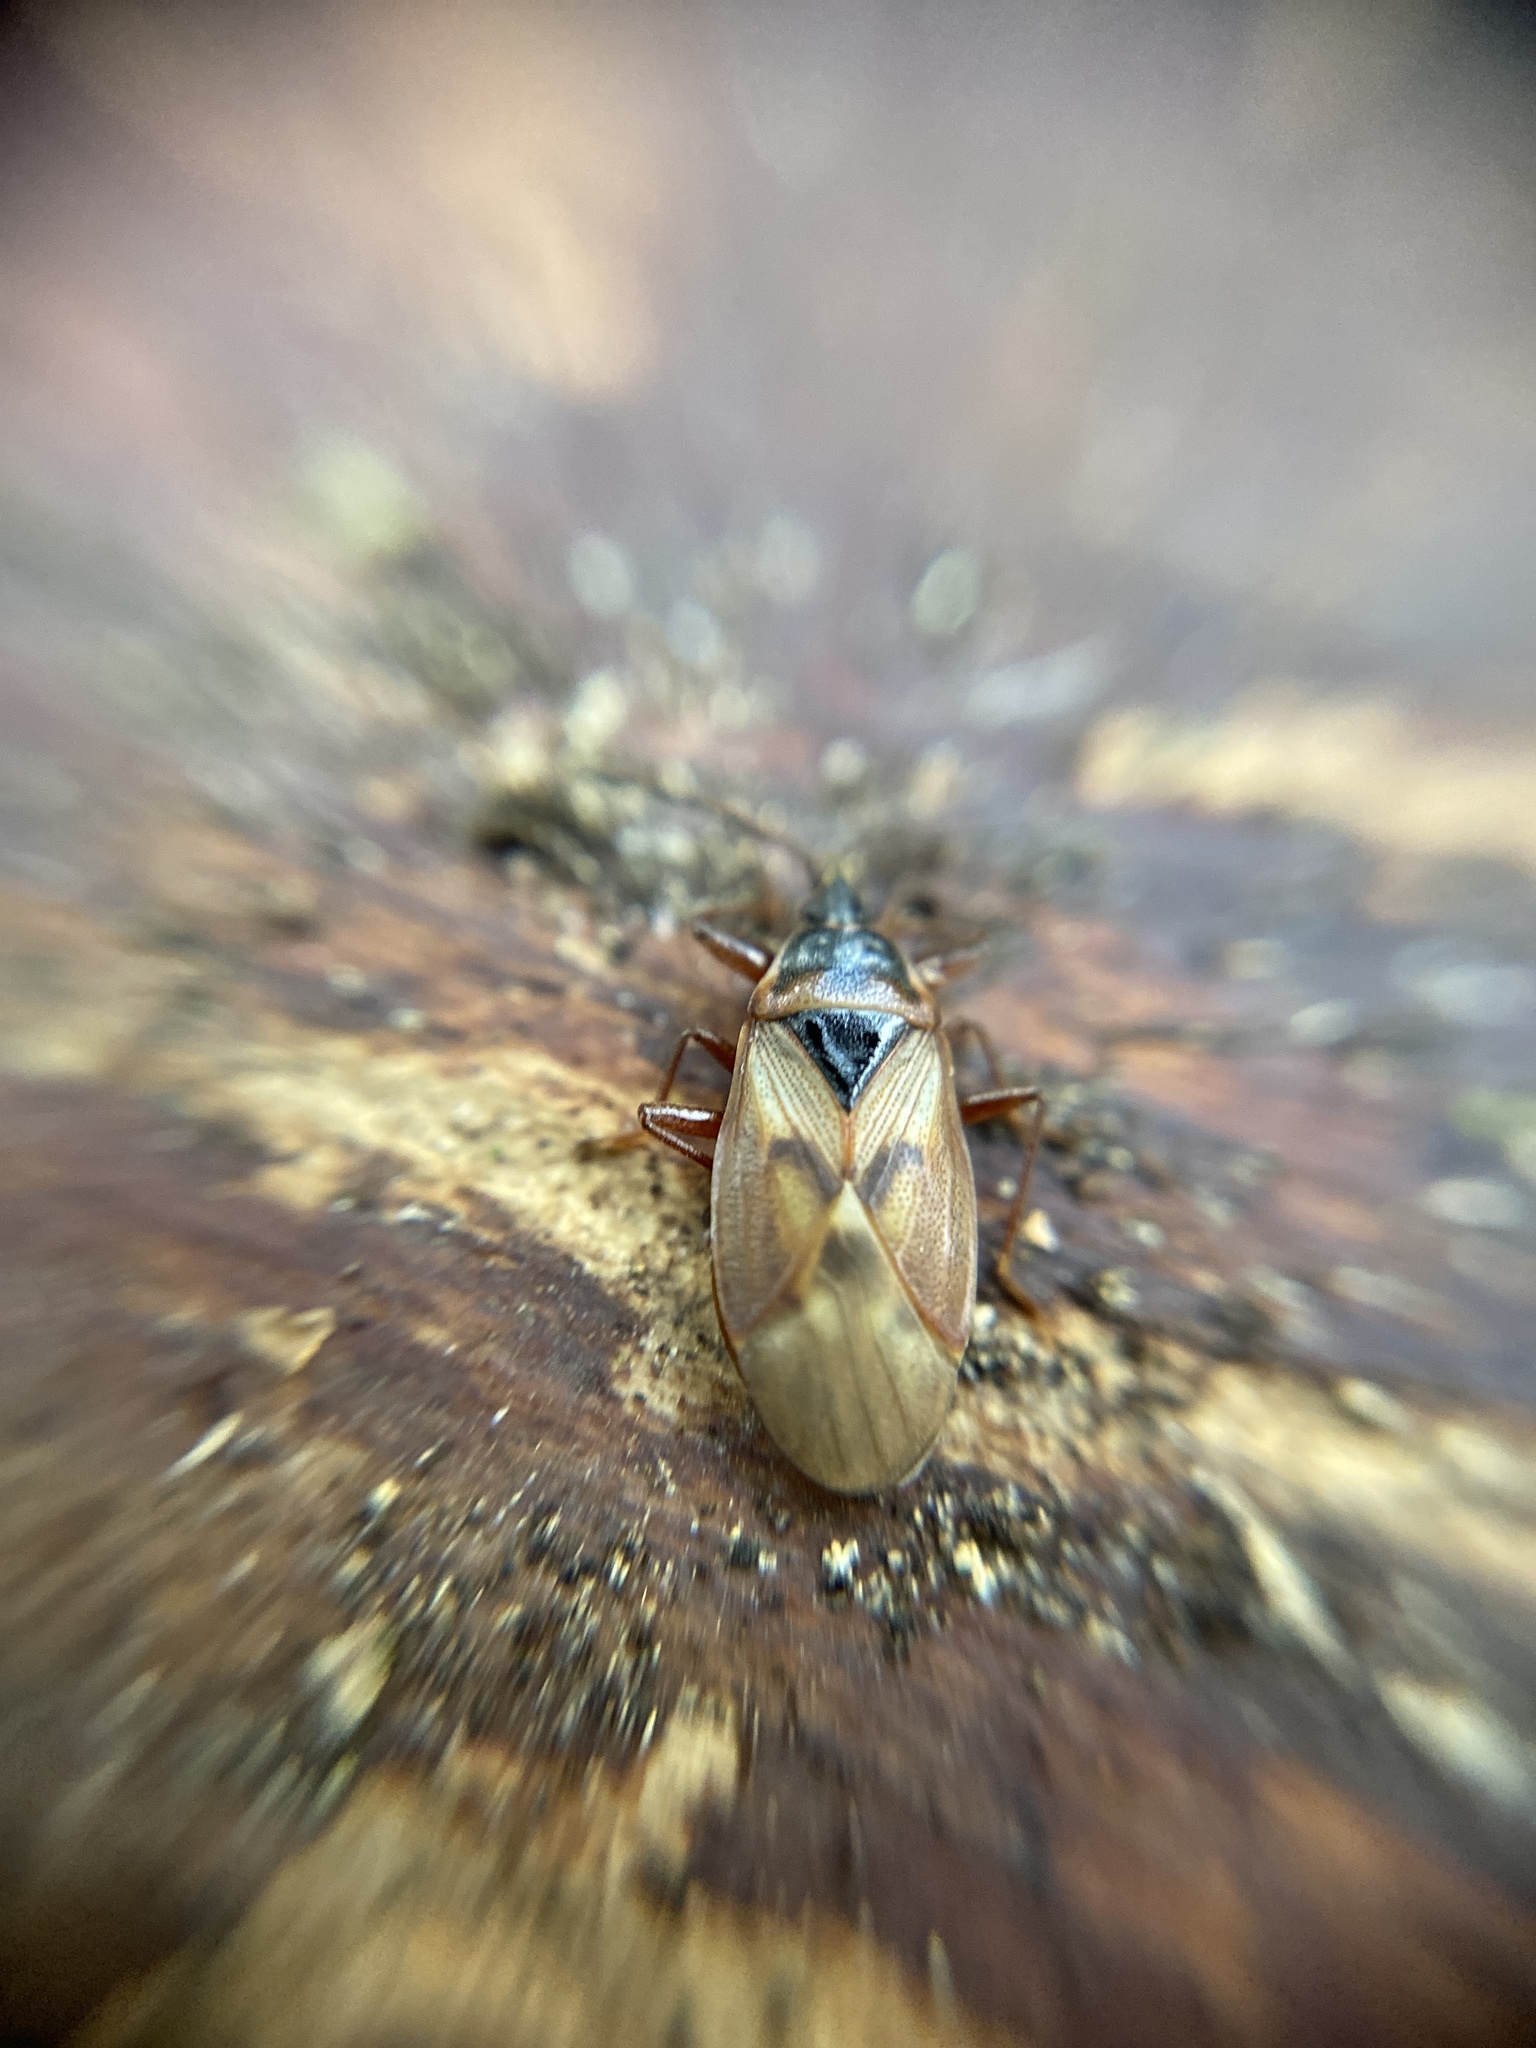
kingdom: Animalia
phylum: Arthropoda
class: Insecta
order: Hemiptera
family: Rhyparochromidae
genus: Gastrodes
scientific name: Gastrodes abietum
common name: Spruce cone bug
